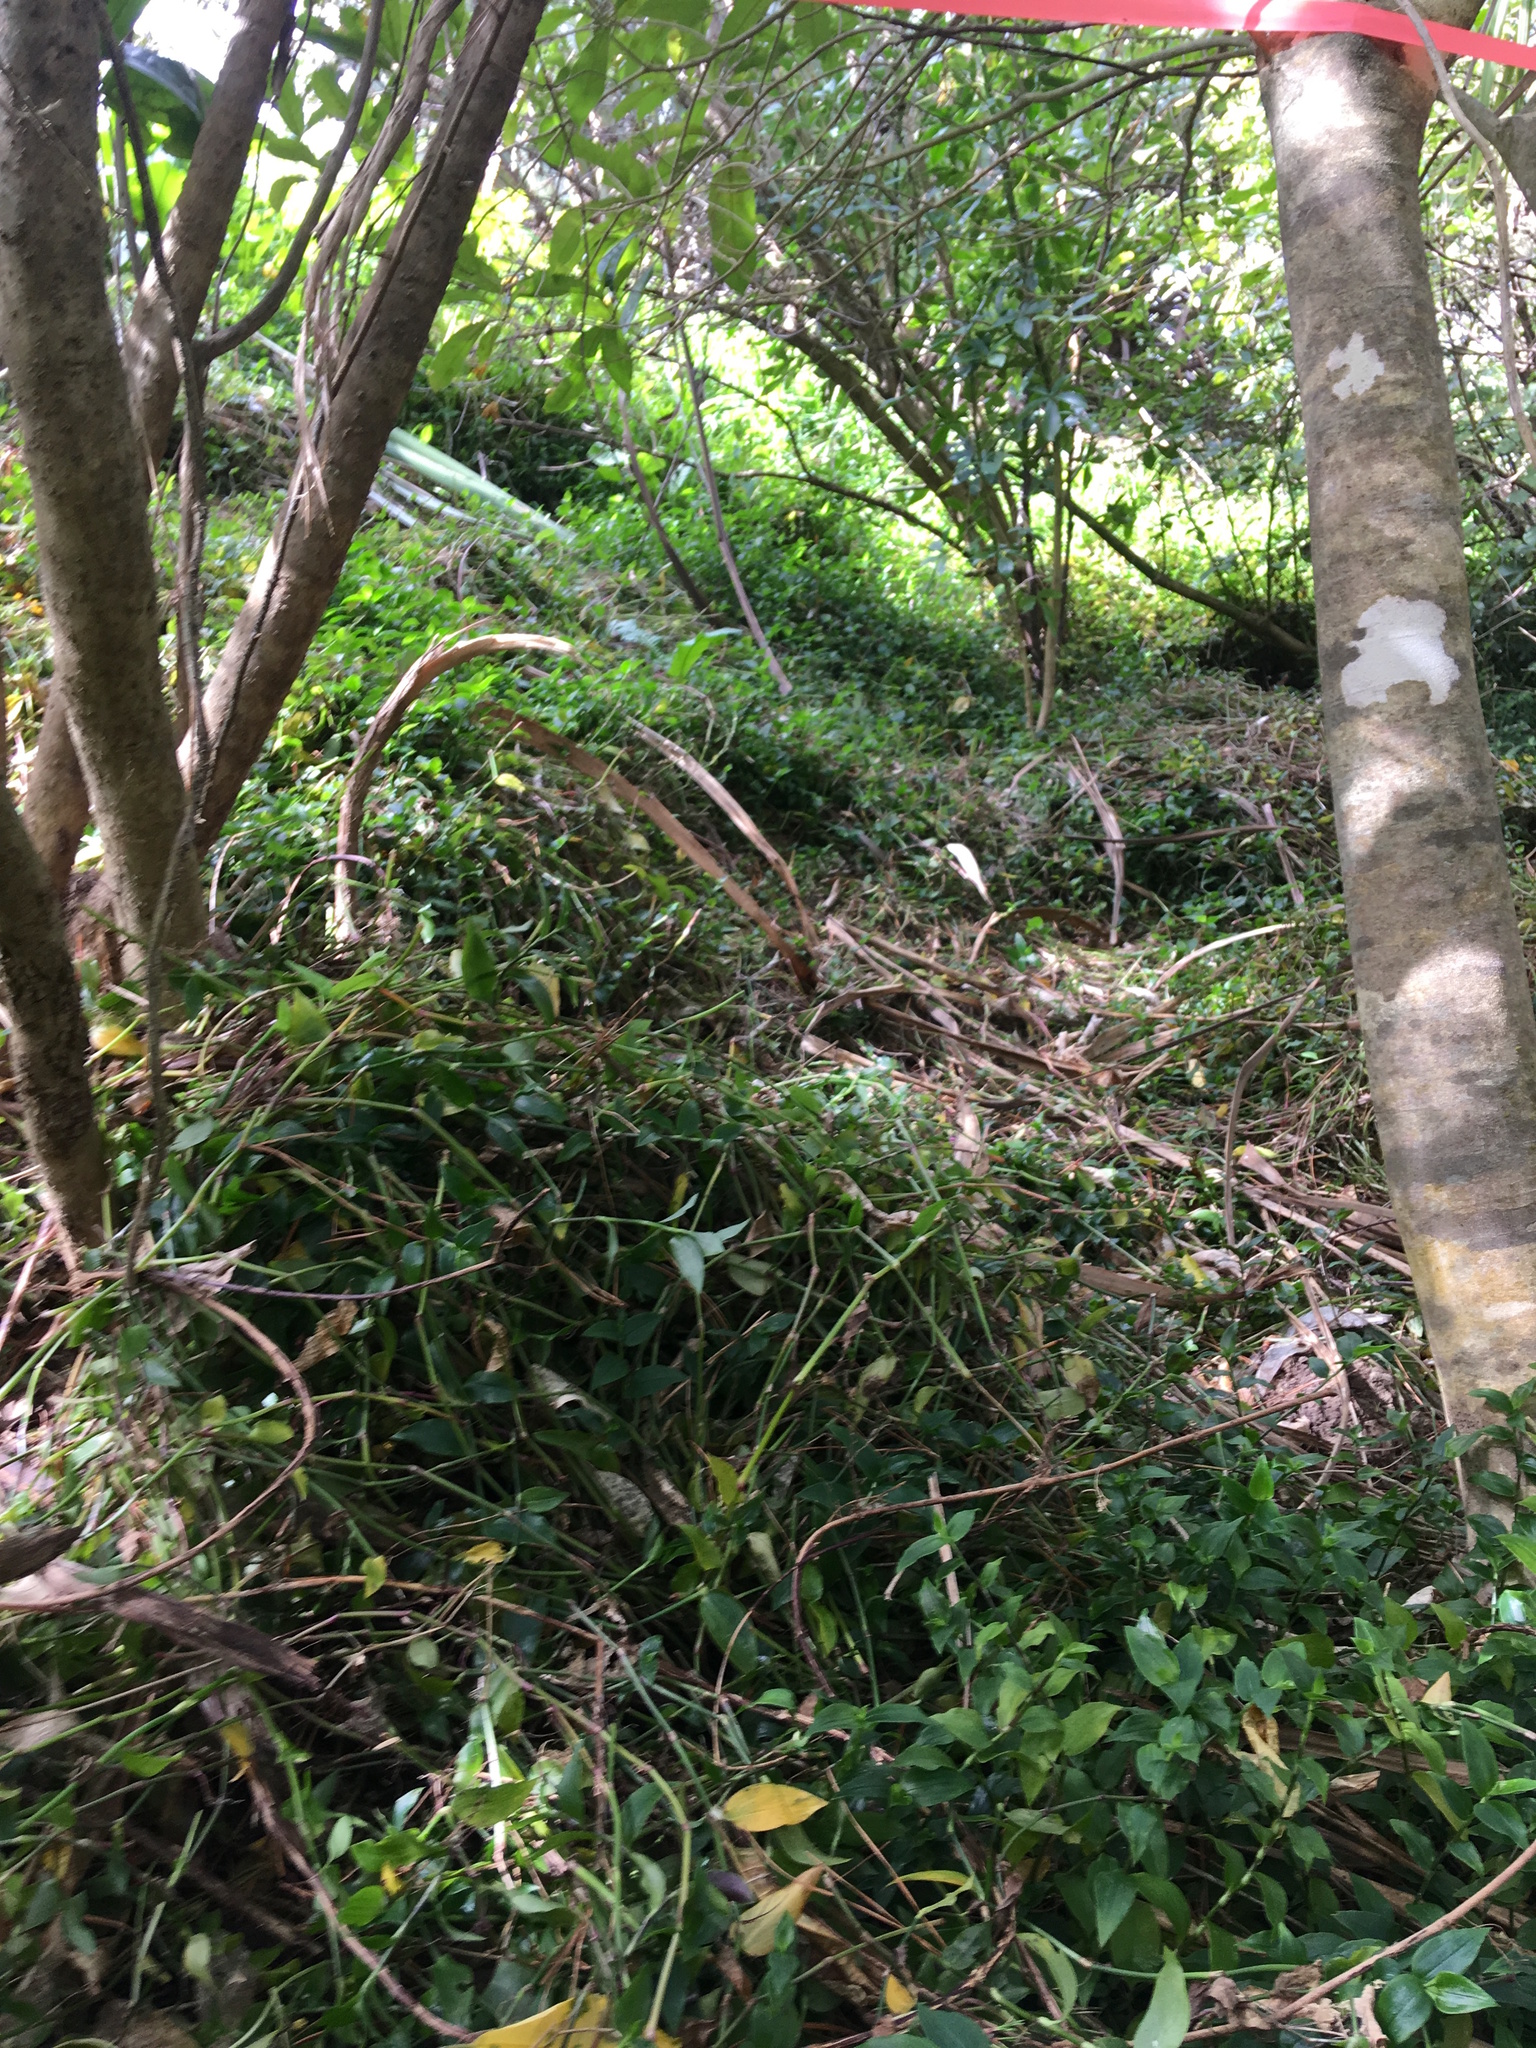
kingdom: Plantae
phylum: Tracheophyta
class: Liliopsida
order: Commelinales
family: Commelinaceae
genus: Tradescantia
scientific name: Tradescantia fluminensis
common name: Wandering-jew
